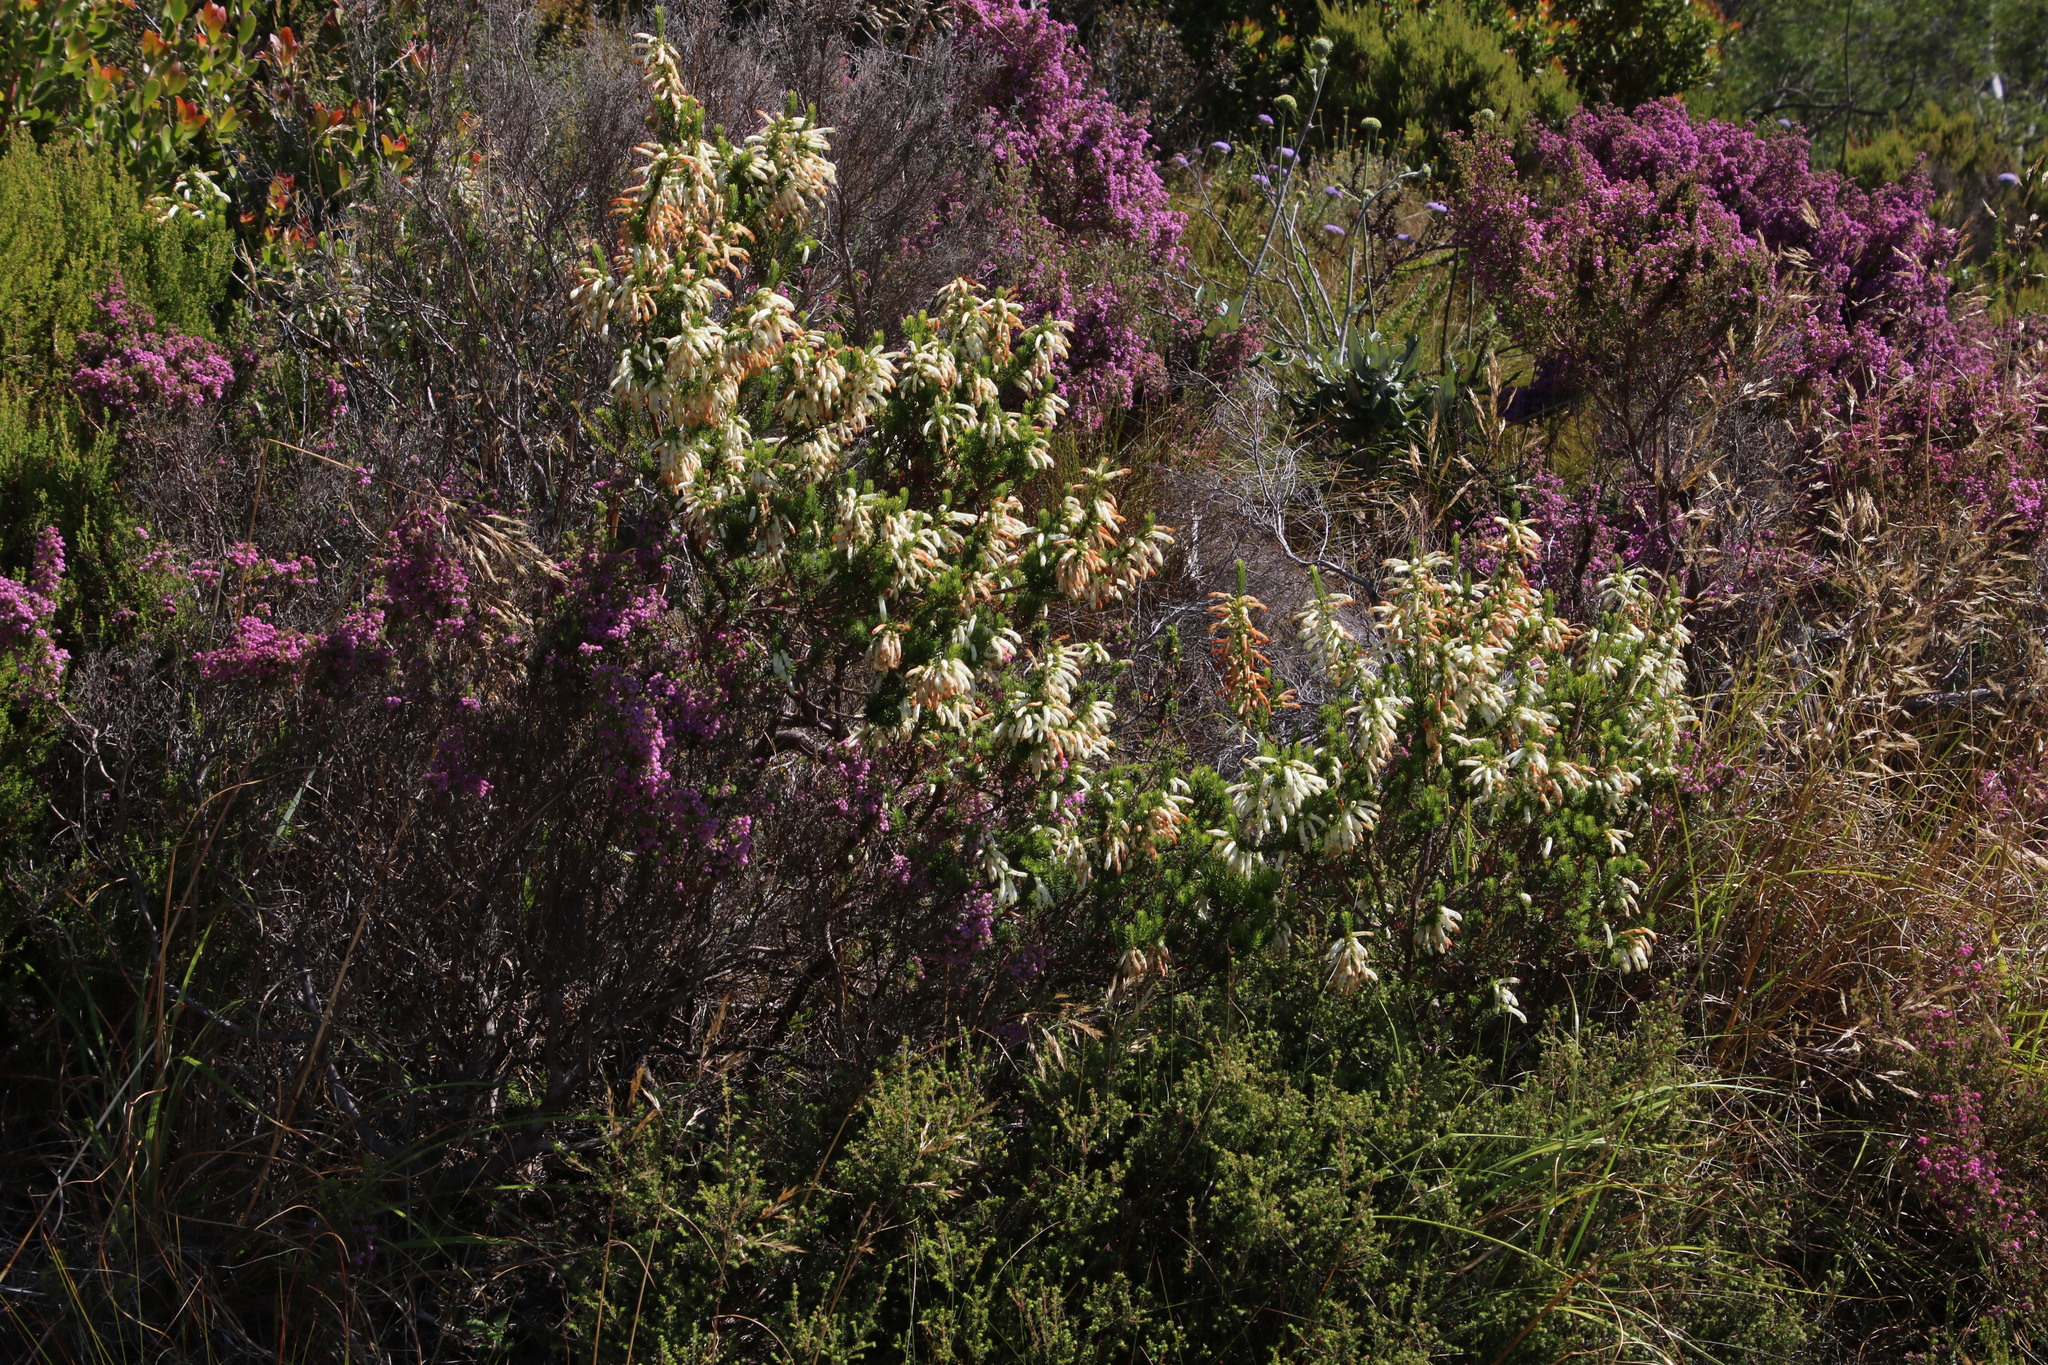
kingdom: Plantae
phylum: Tracheophyta
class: Magnoliopsida
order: Ericales
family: Ericaceae
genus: Erica
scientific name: Erica mammosa
